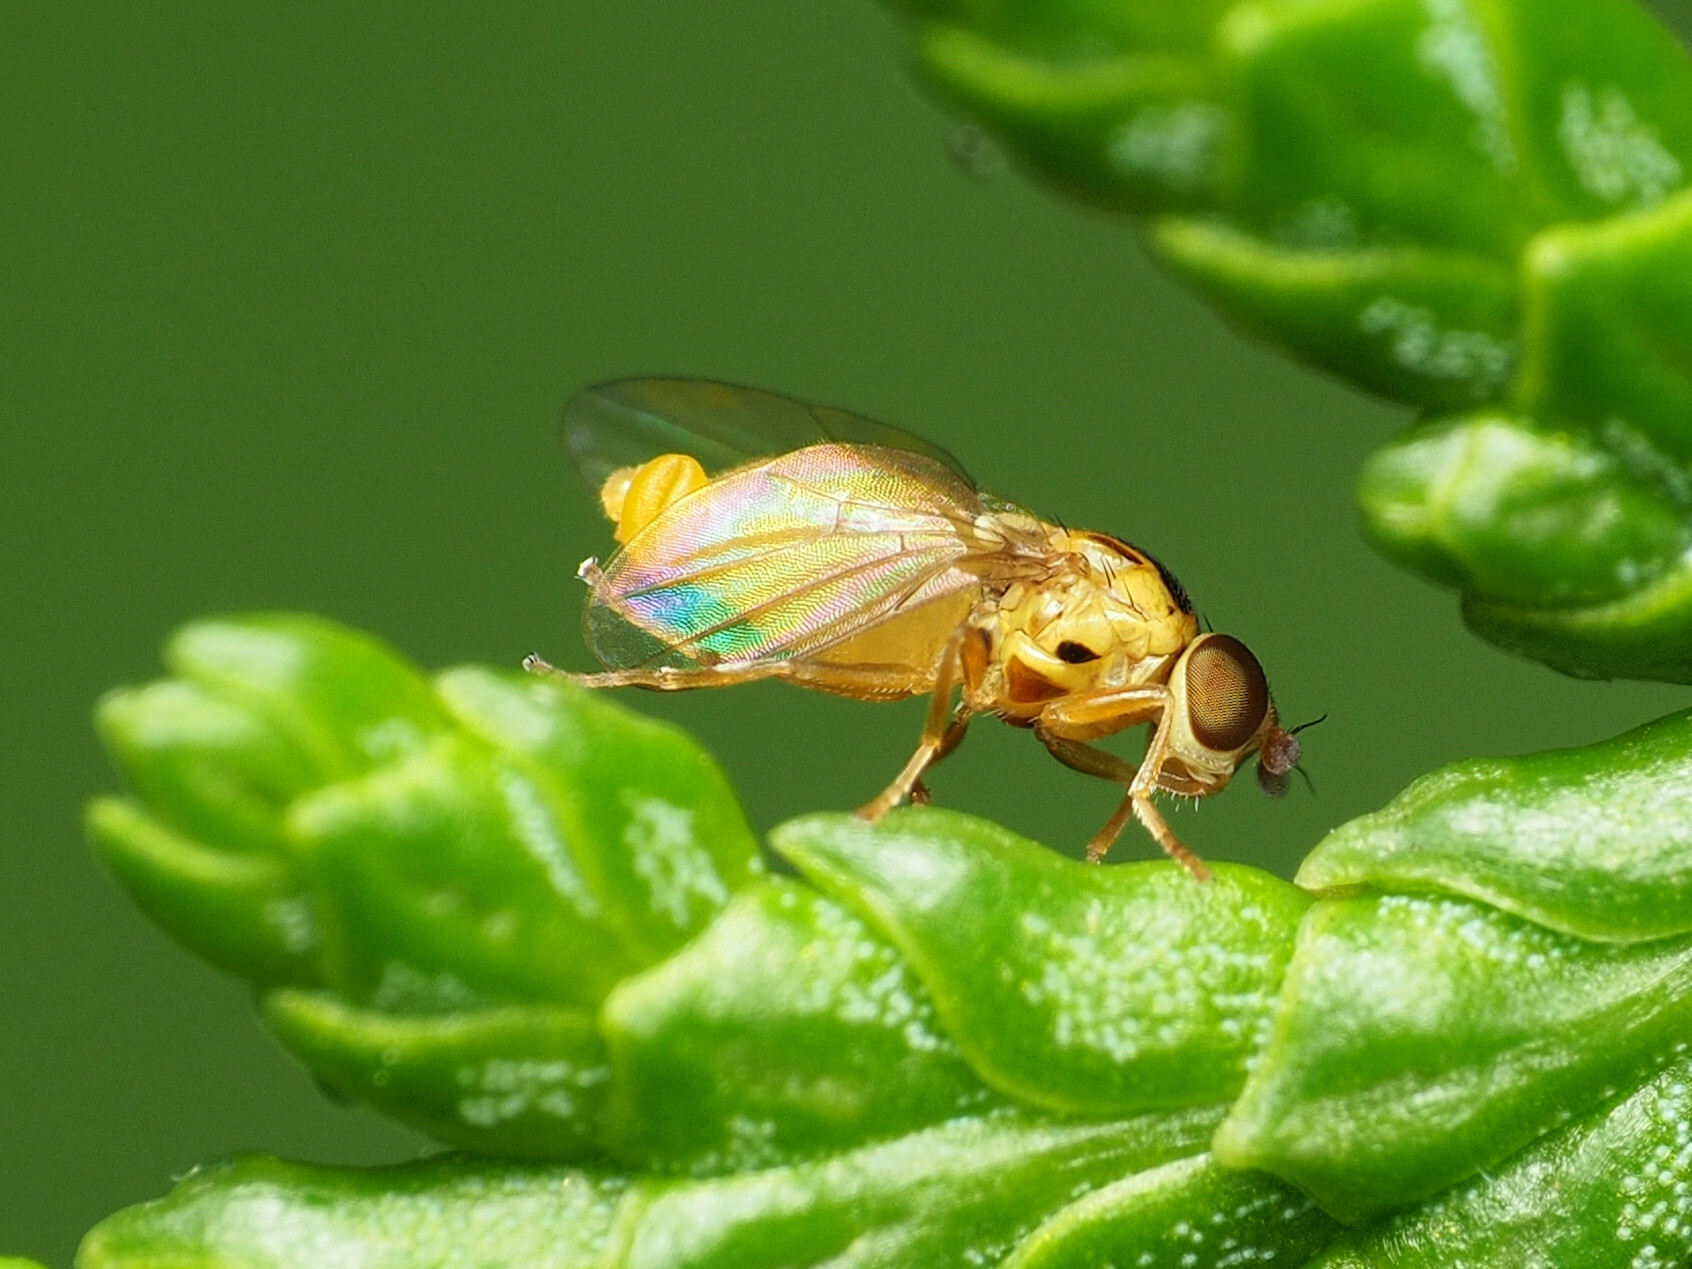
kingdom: Animalia
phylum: Arthropoda
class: Insecta
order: Diptera
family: Chloropidae
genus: Thaumatomyia
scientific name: Thaumatomyia notata
